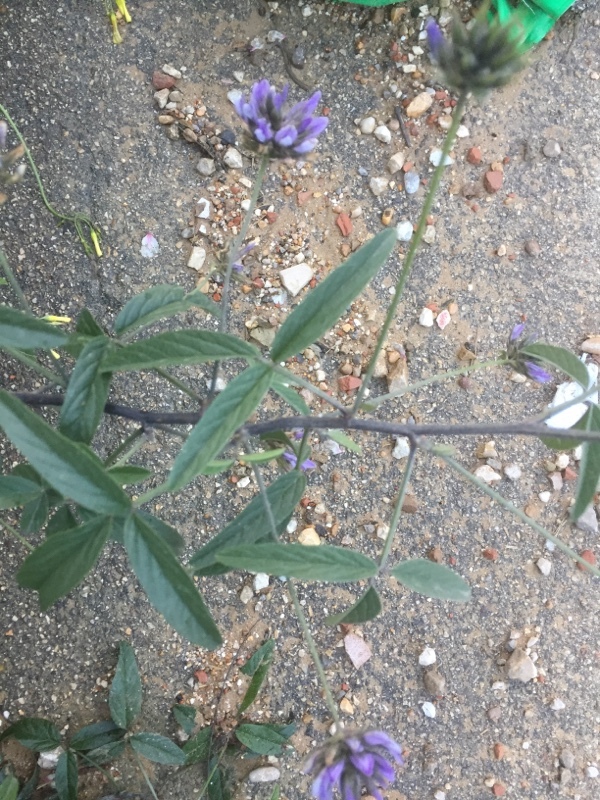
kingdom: Plantae
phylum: Tracheophyta
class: Magnoliopsida
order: Fabales
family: Fabaceae
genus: Bituminaria
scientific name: Bituminaria bituminosa
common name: Arabian pea
